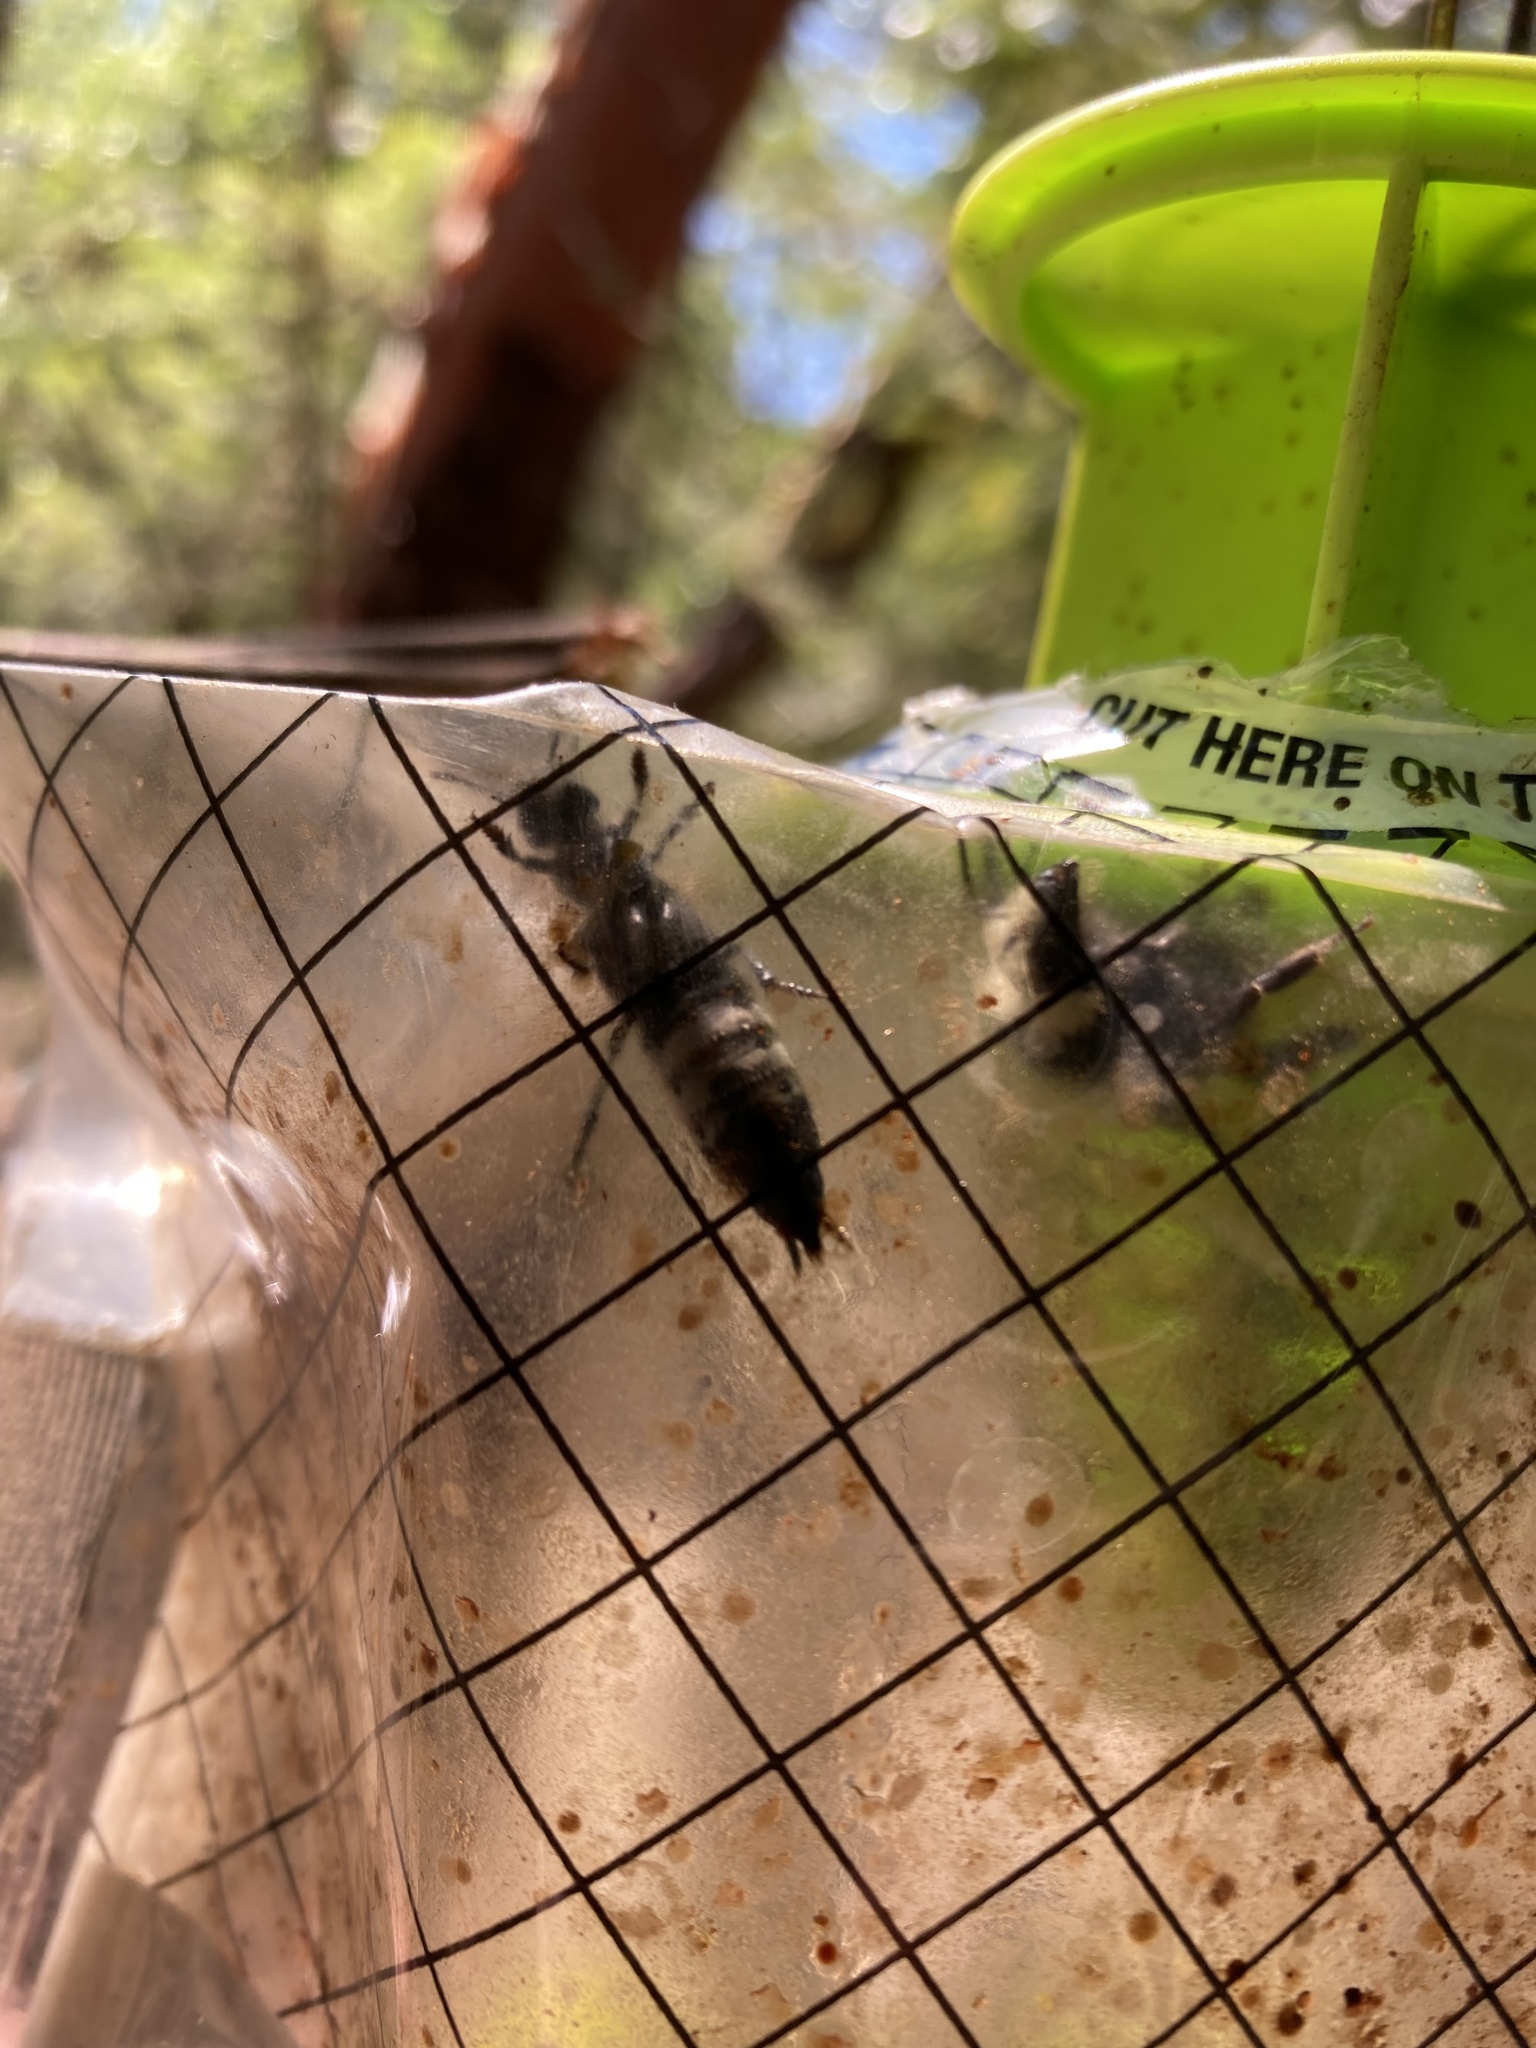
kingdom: Animalia
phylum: Arthropoda
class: Insecta
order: Coleoptera
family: Staphylinidae
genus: Creophilus
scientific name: Creophilus maxillosus
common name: Hairy rove beetle
